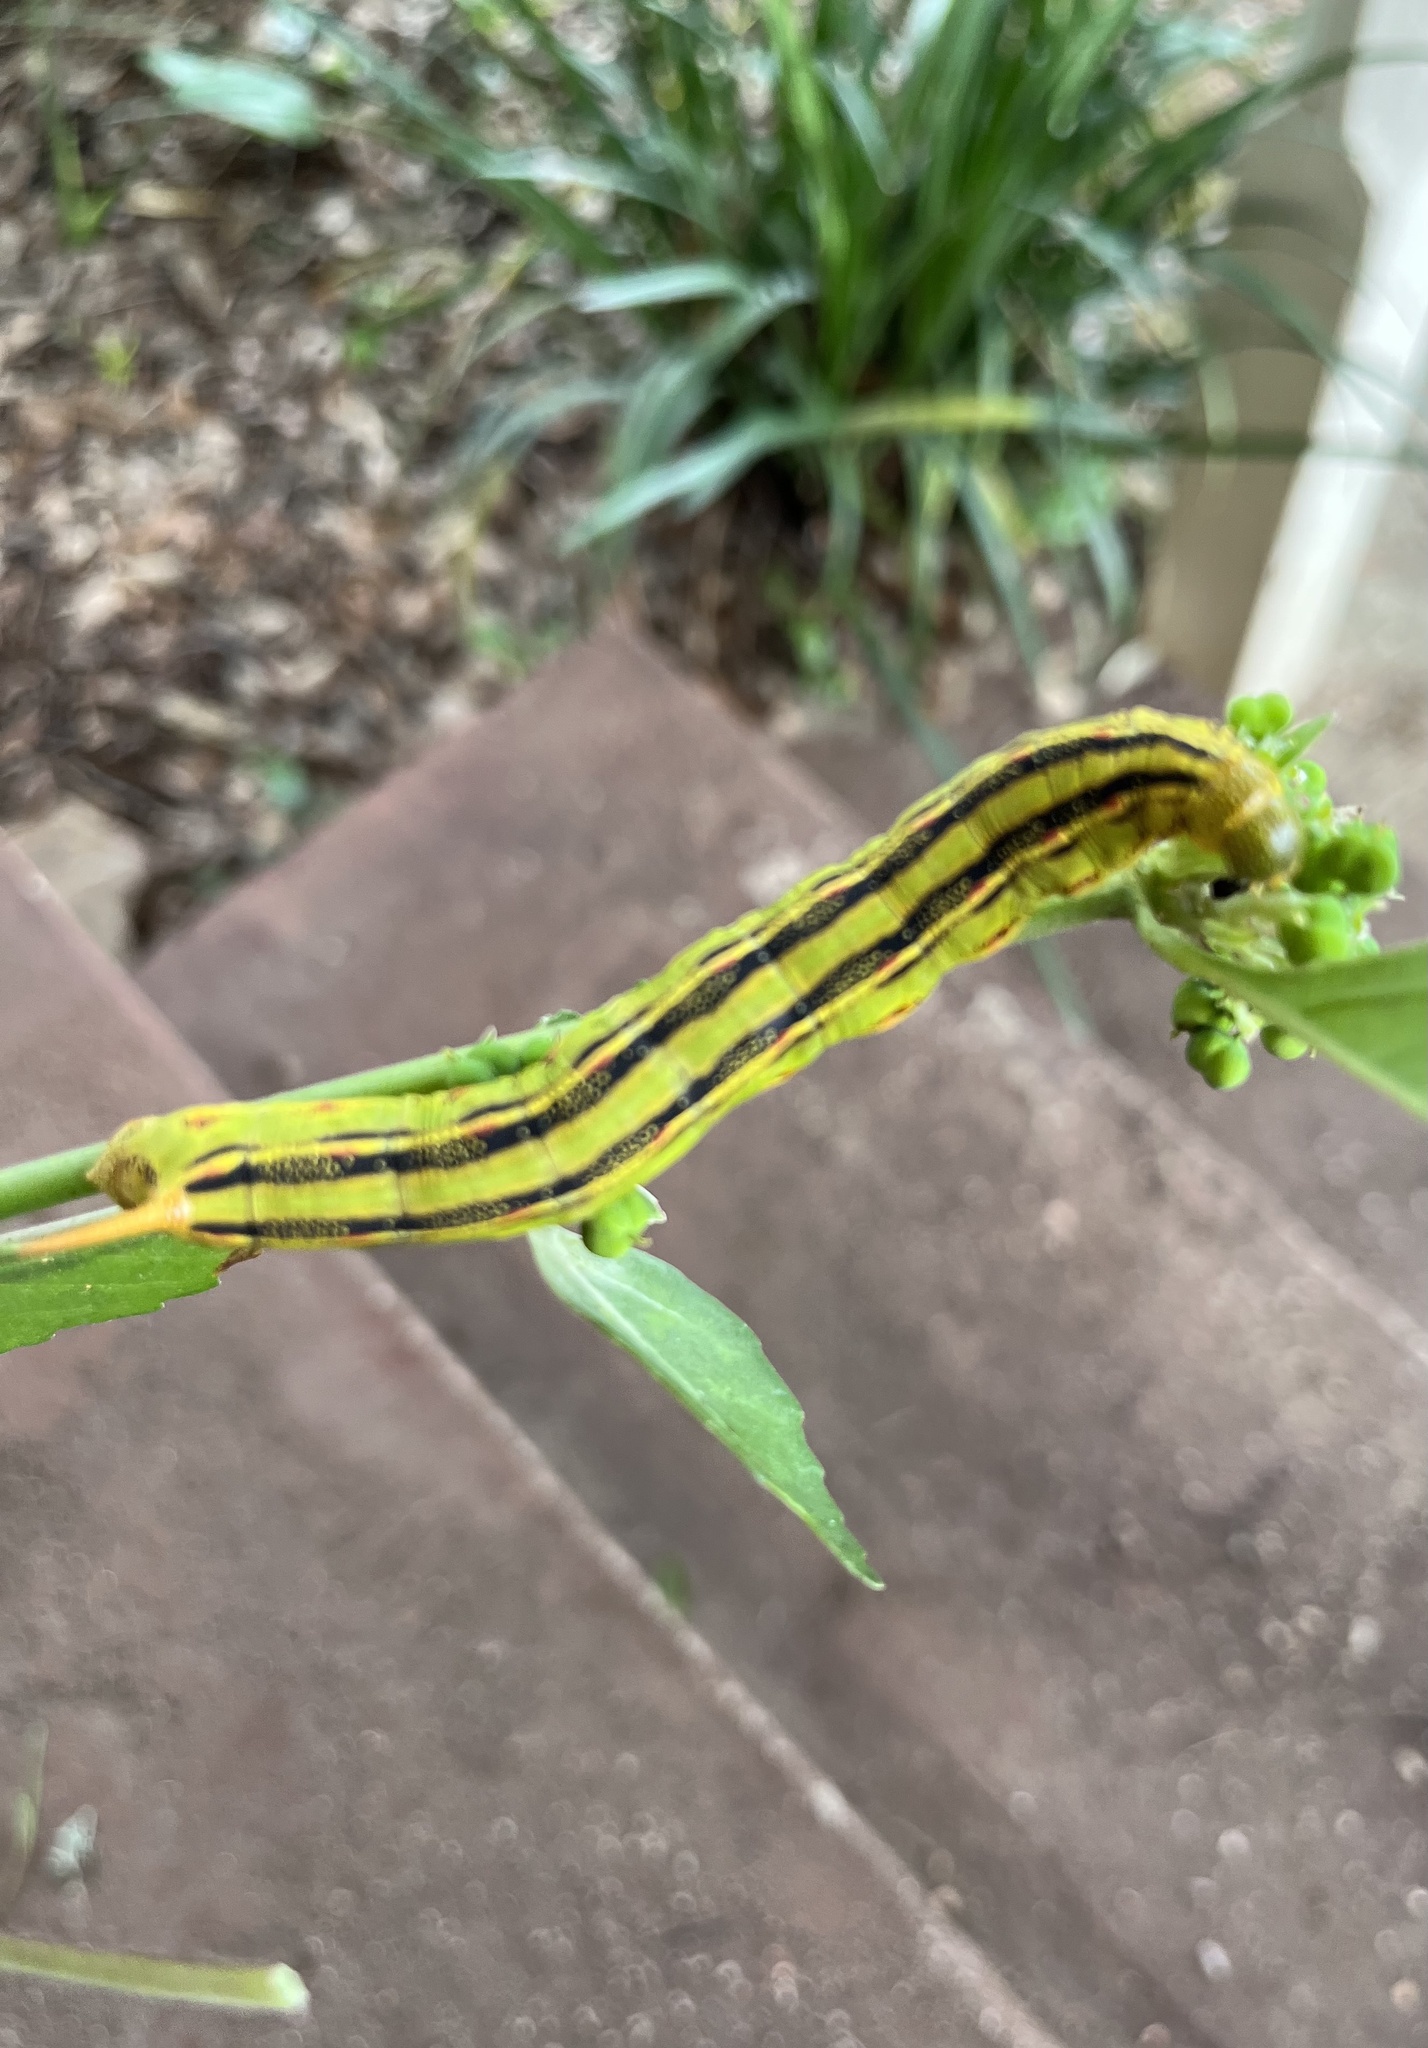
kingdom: Animalia
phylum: Arthropoda
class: Insecta
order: Lepidoptera
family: Sphingidae
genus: Hyles
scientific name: Hyles lineata
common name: White-lined sphinx
